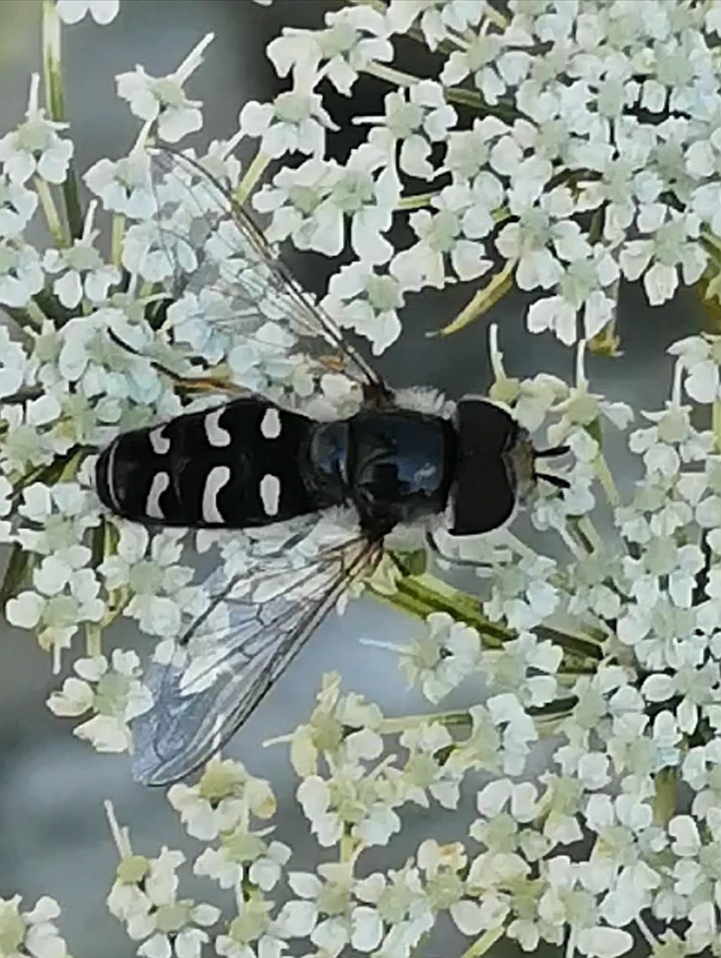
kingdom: Animalia
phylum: Arthropoda
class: Insecta
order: Diptera
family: Syrphidae
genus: Scaeva
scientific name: Scaeva pyrastri
